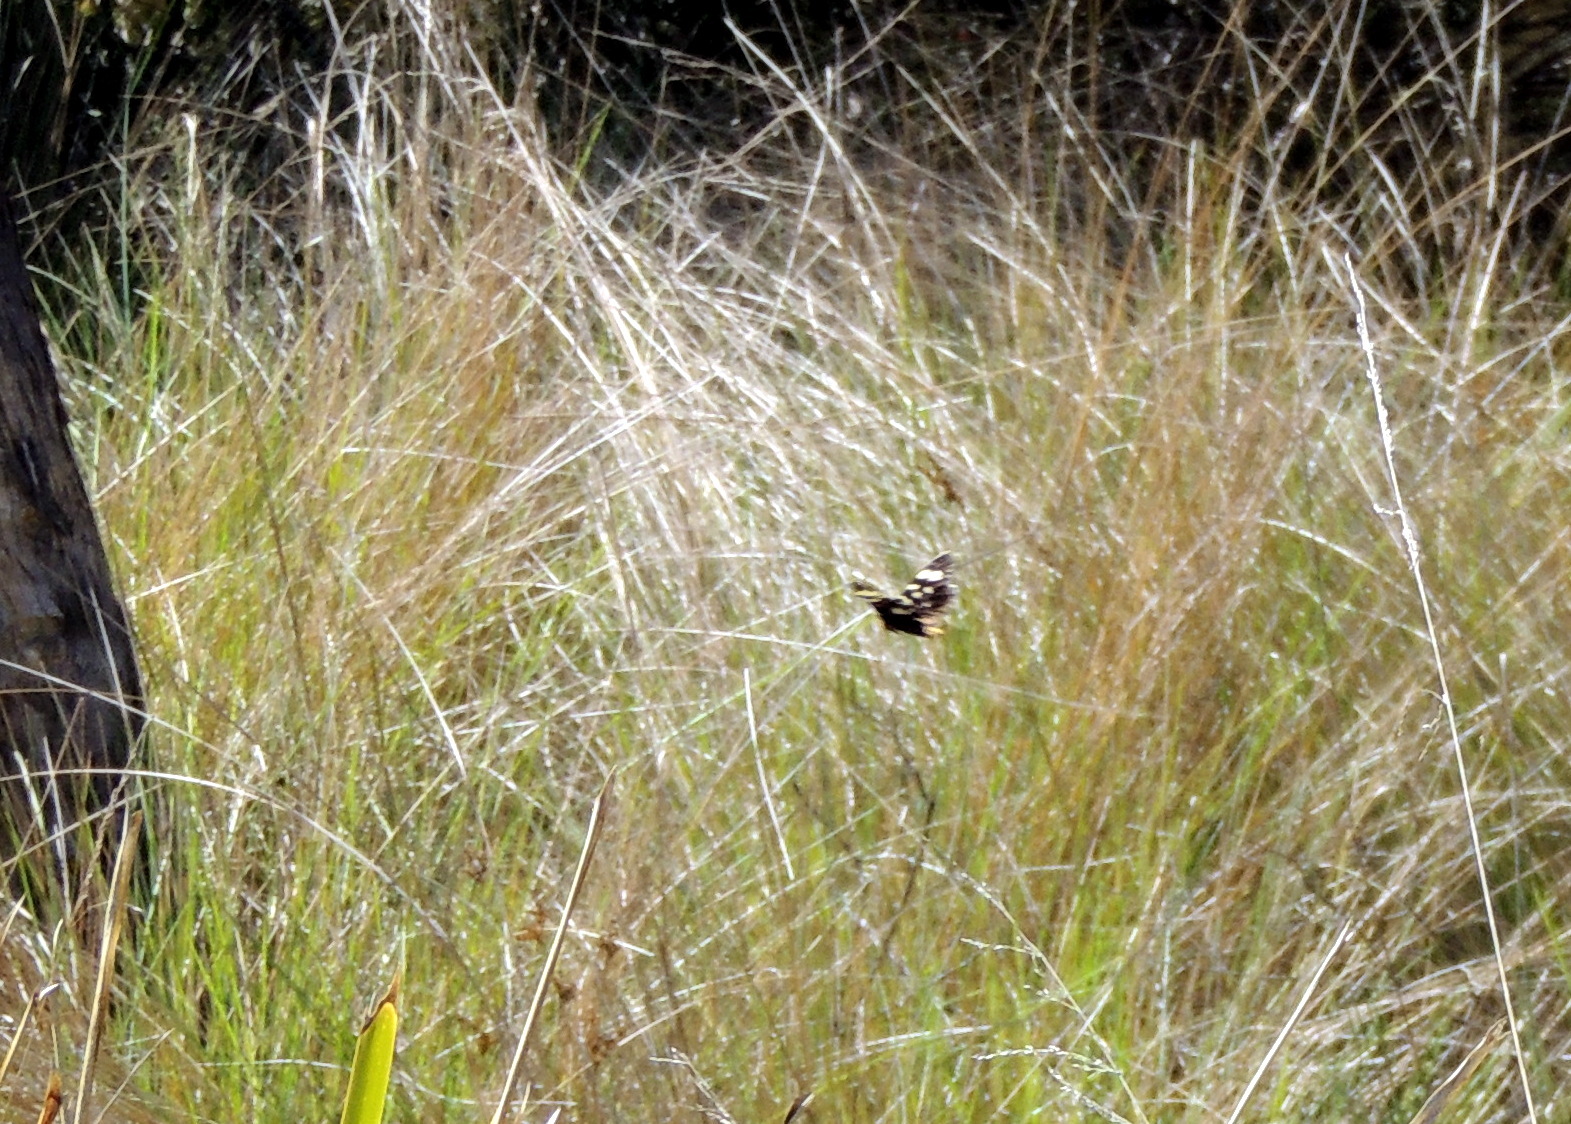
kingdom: Animalia
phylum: Arthropoda
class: Insecta
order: Lepidoptera
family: Noctuidae
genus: Phalaenoides
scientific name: Phalaenoides tristifica
